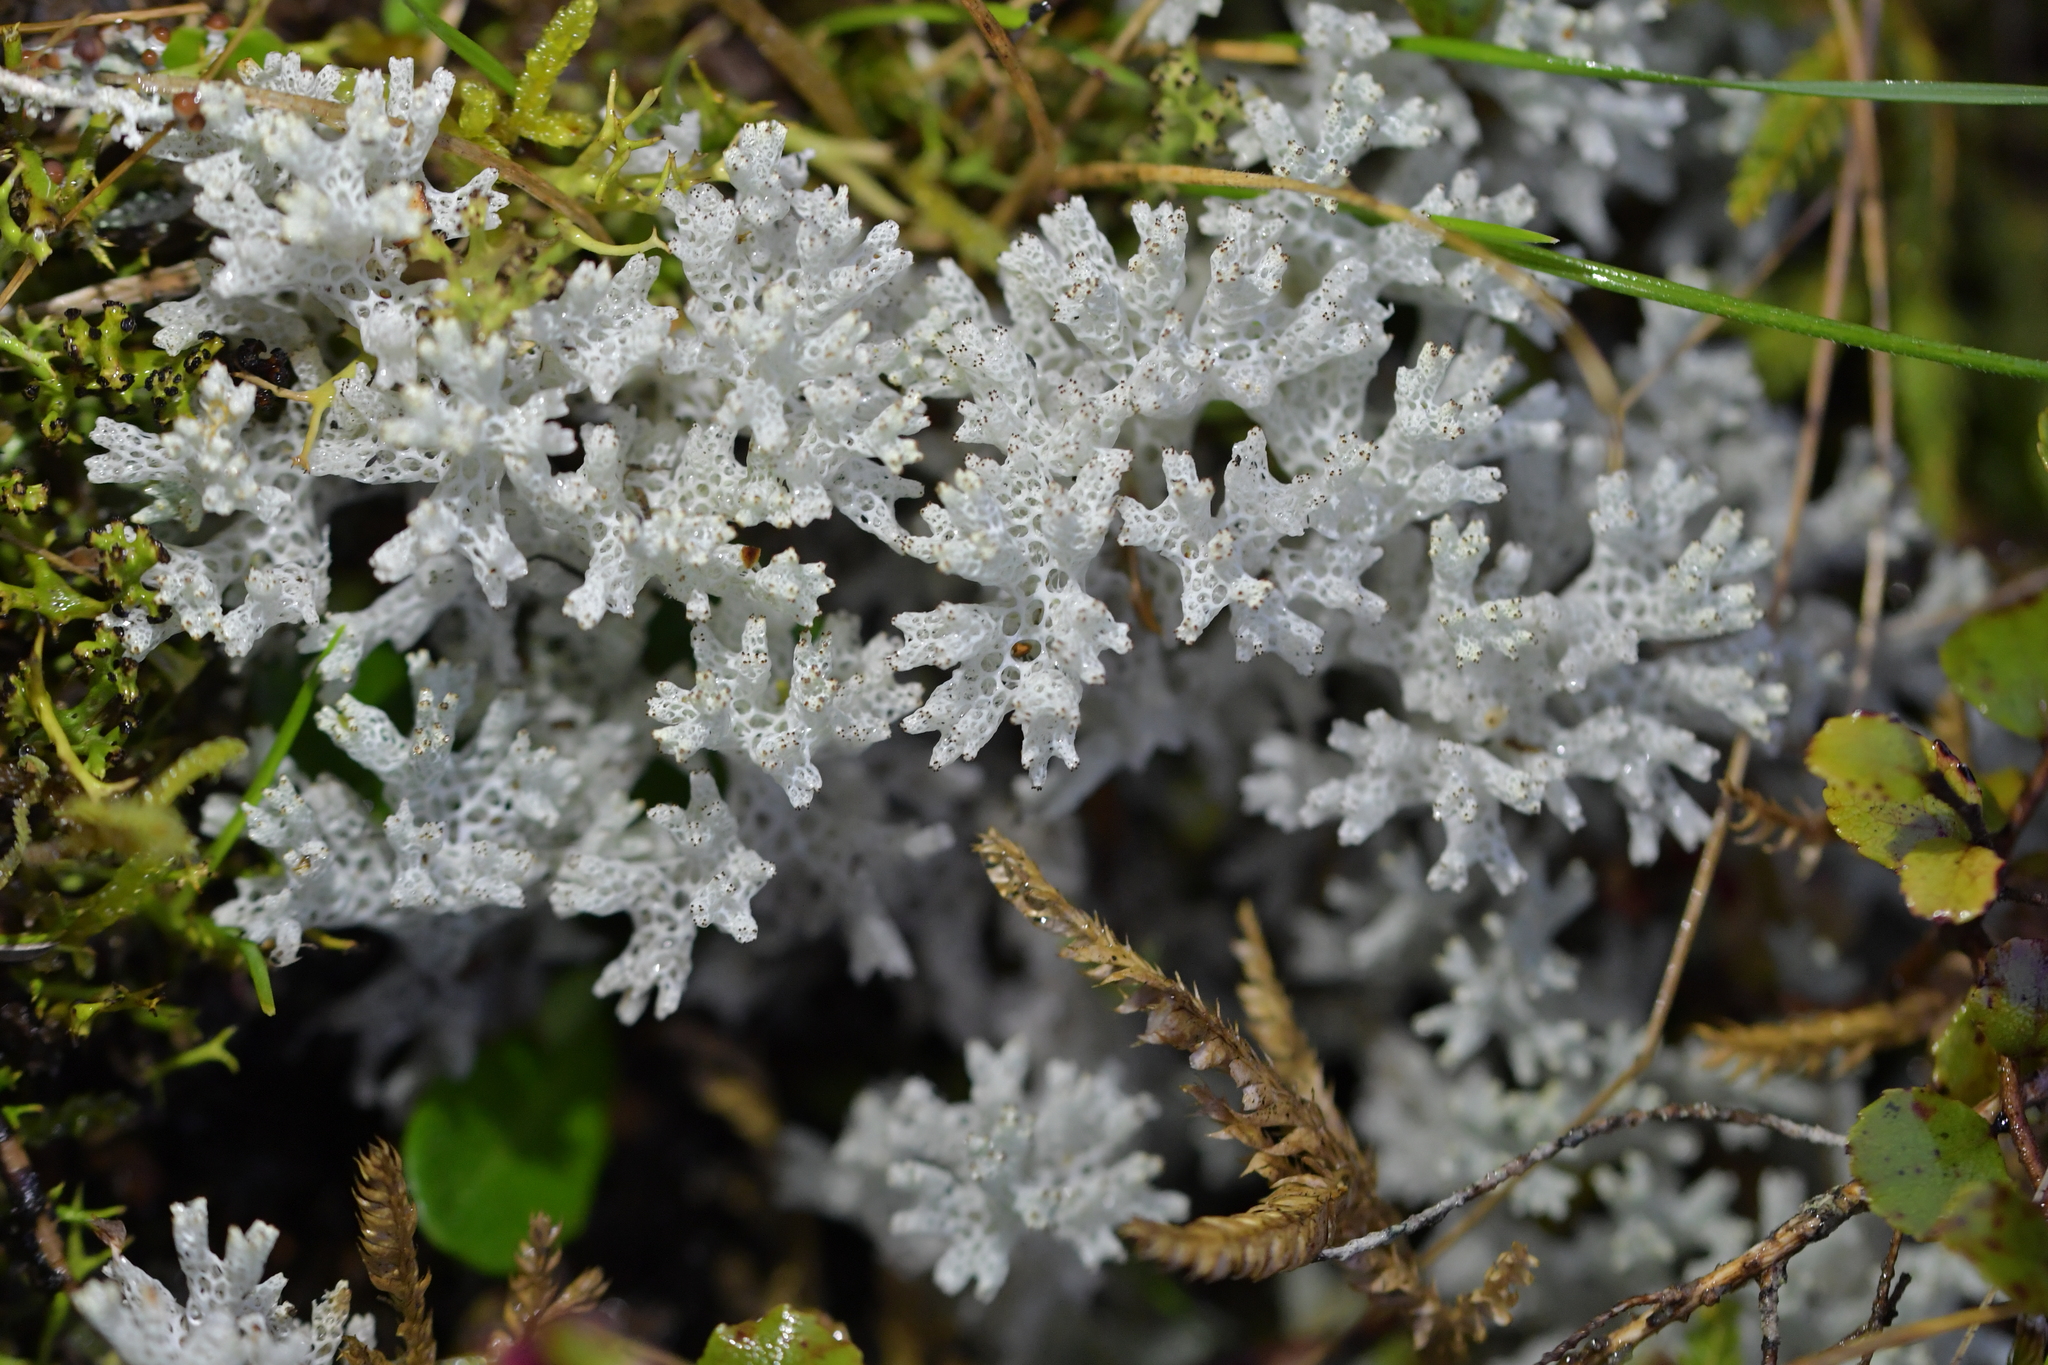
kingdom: Fungi
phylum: Ascomycota
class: Lecanoromycetes
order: Lecanorales
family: Cladoniaceae
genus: Pulchrocladia
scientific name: Pulchrocladia retipora
